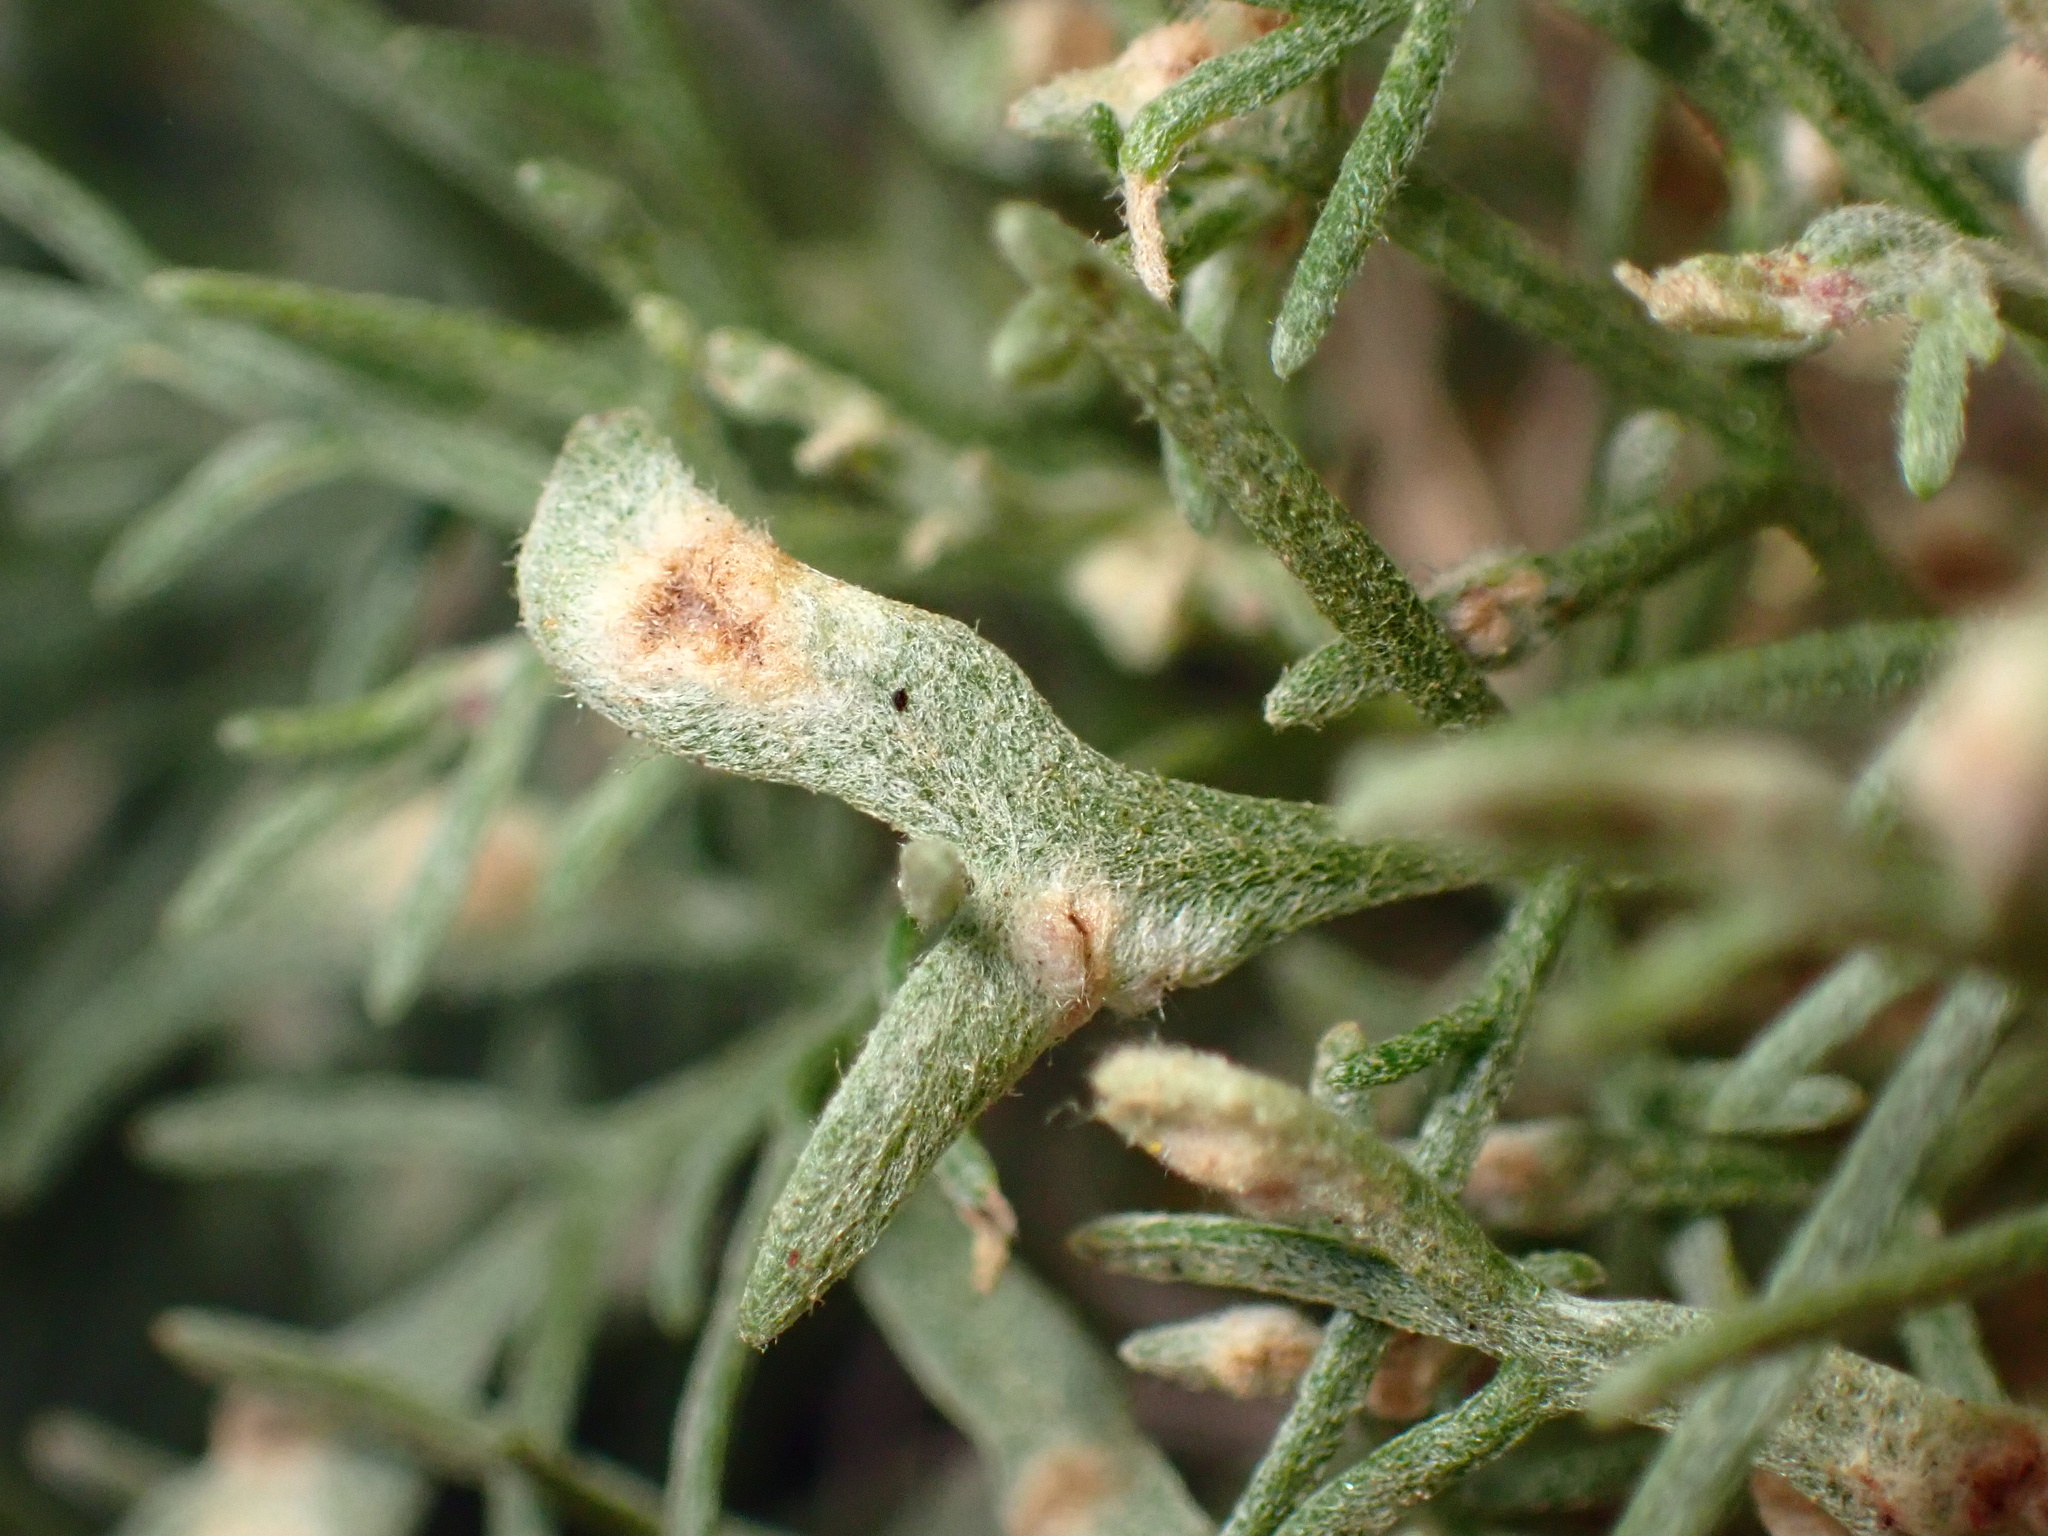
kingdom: Animalia
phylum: Arthropoda
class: Arachnida
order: Trombidiformes
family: Eriophyidae
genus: Aceria
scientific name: Aceria
